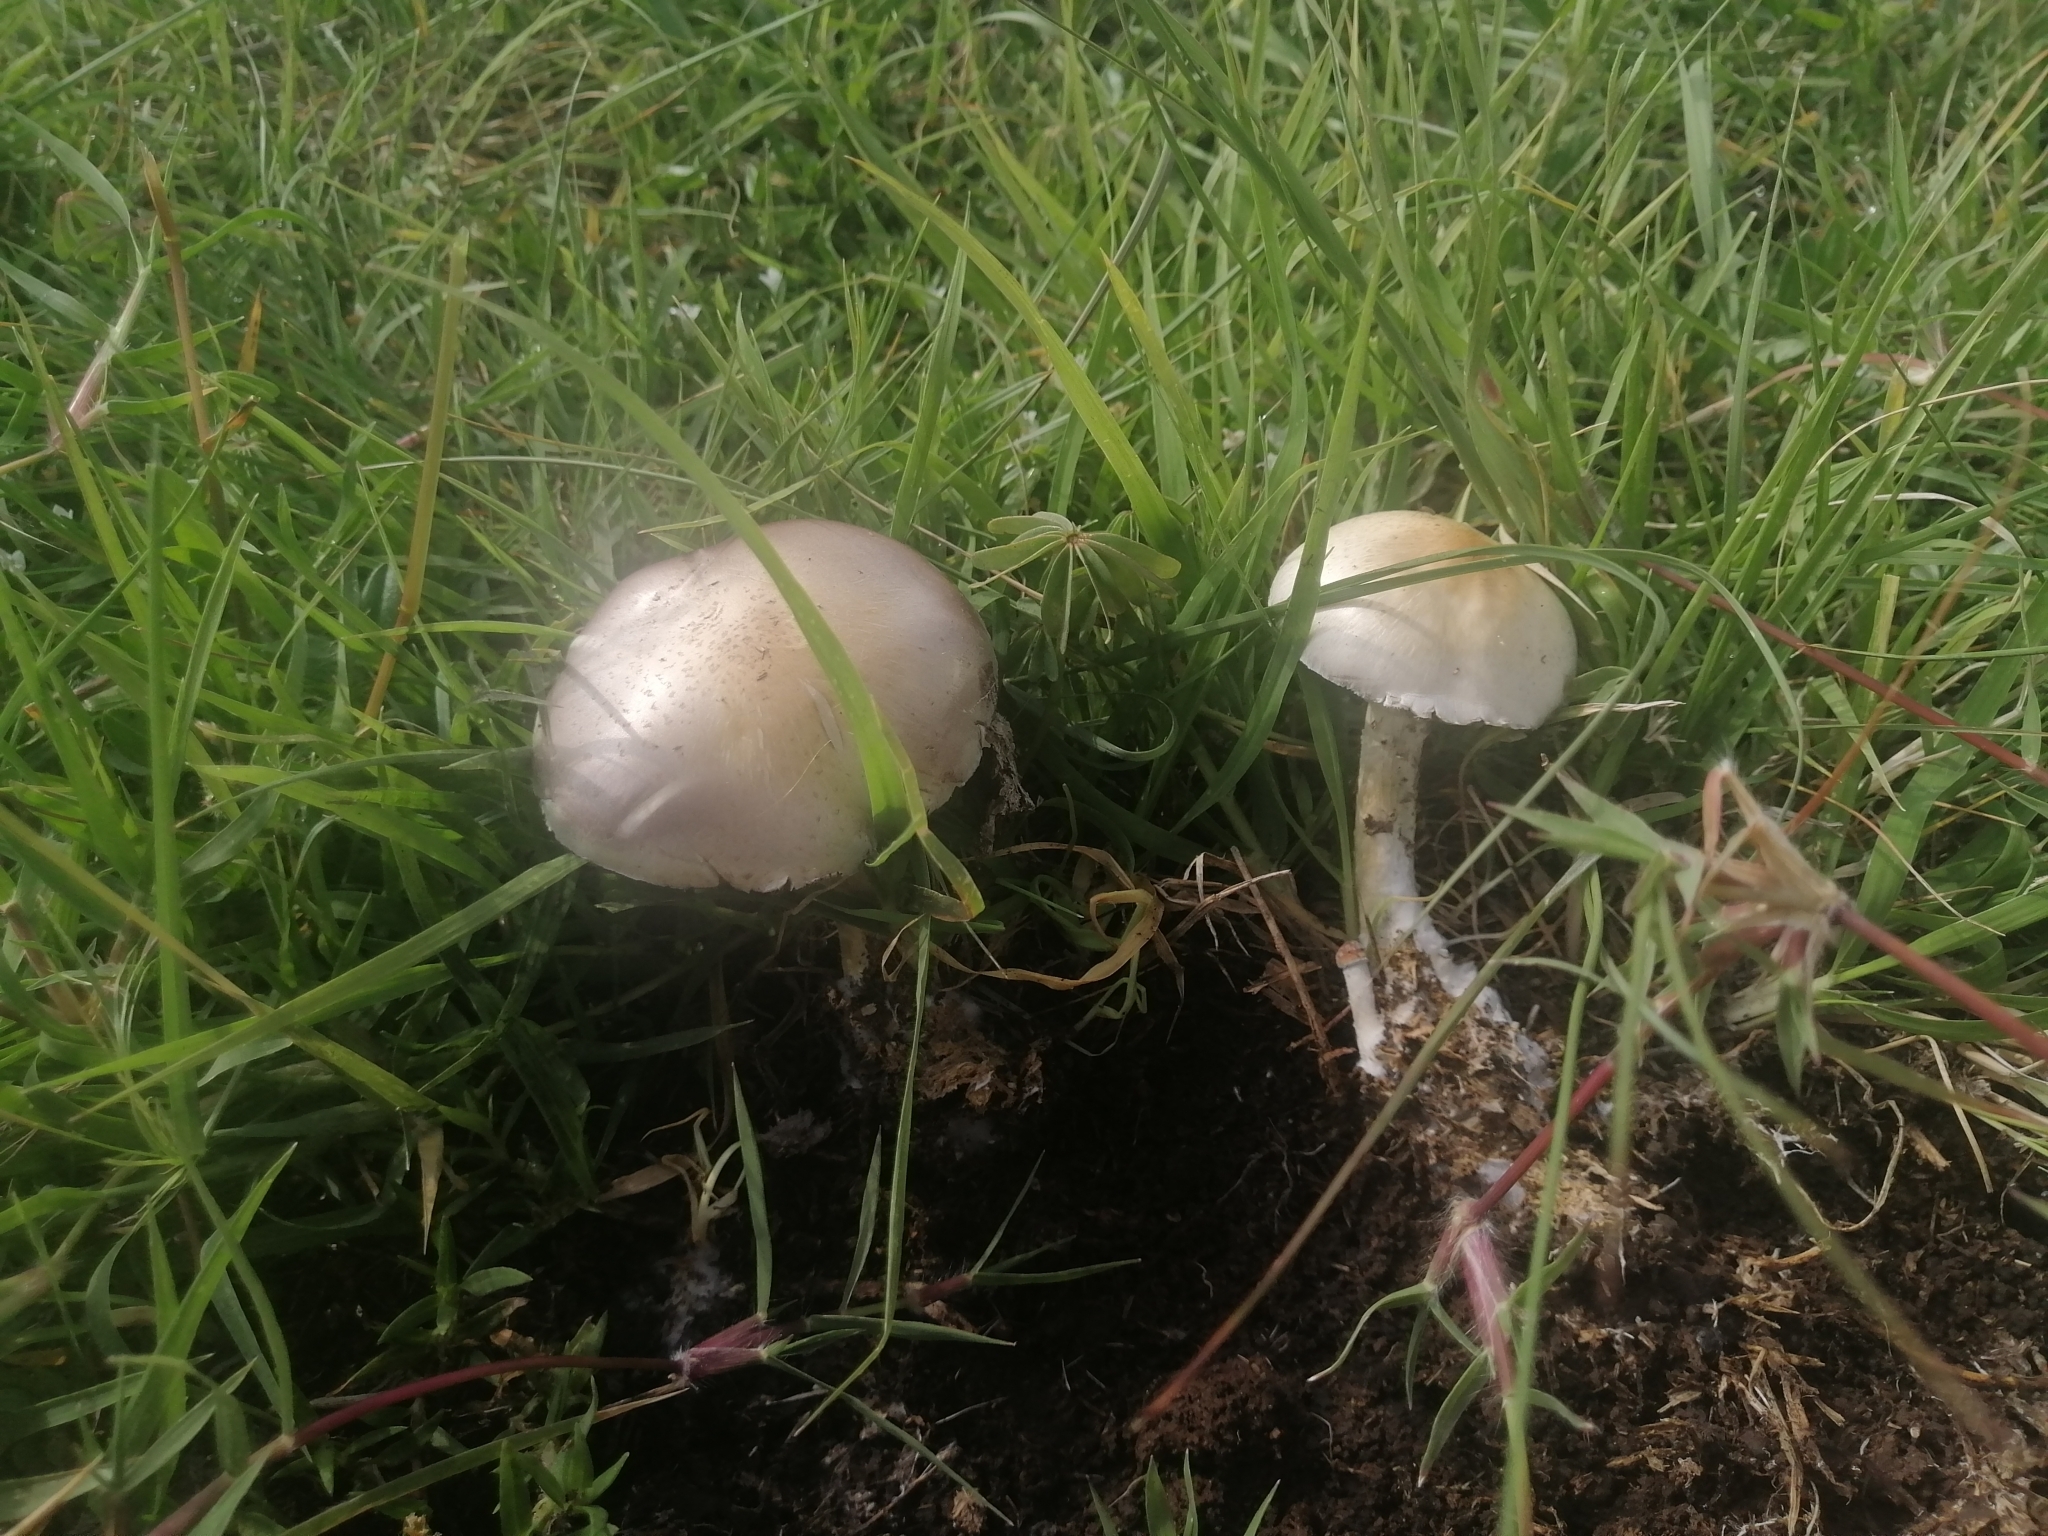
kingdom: Fungi
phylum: Basidiomycota
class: Agaricomycetes
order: Agaricales
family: Hymenogastraceae
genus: Psilocybe
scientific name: Psilocybe cubensis
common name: Golden brownie
